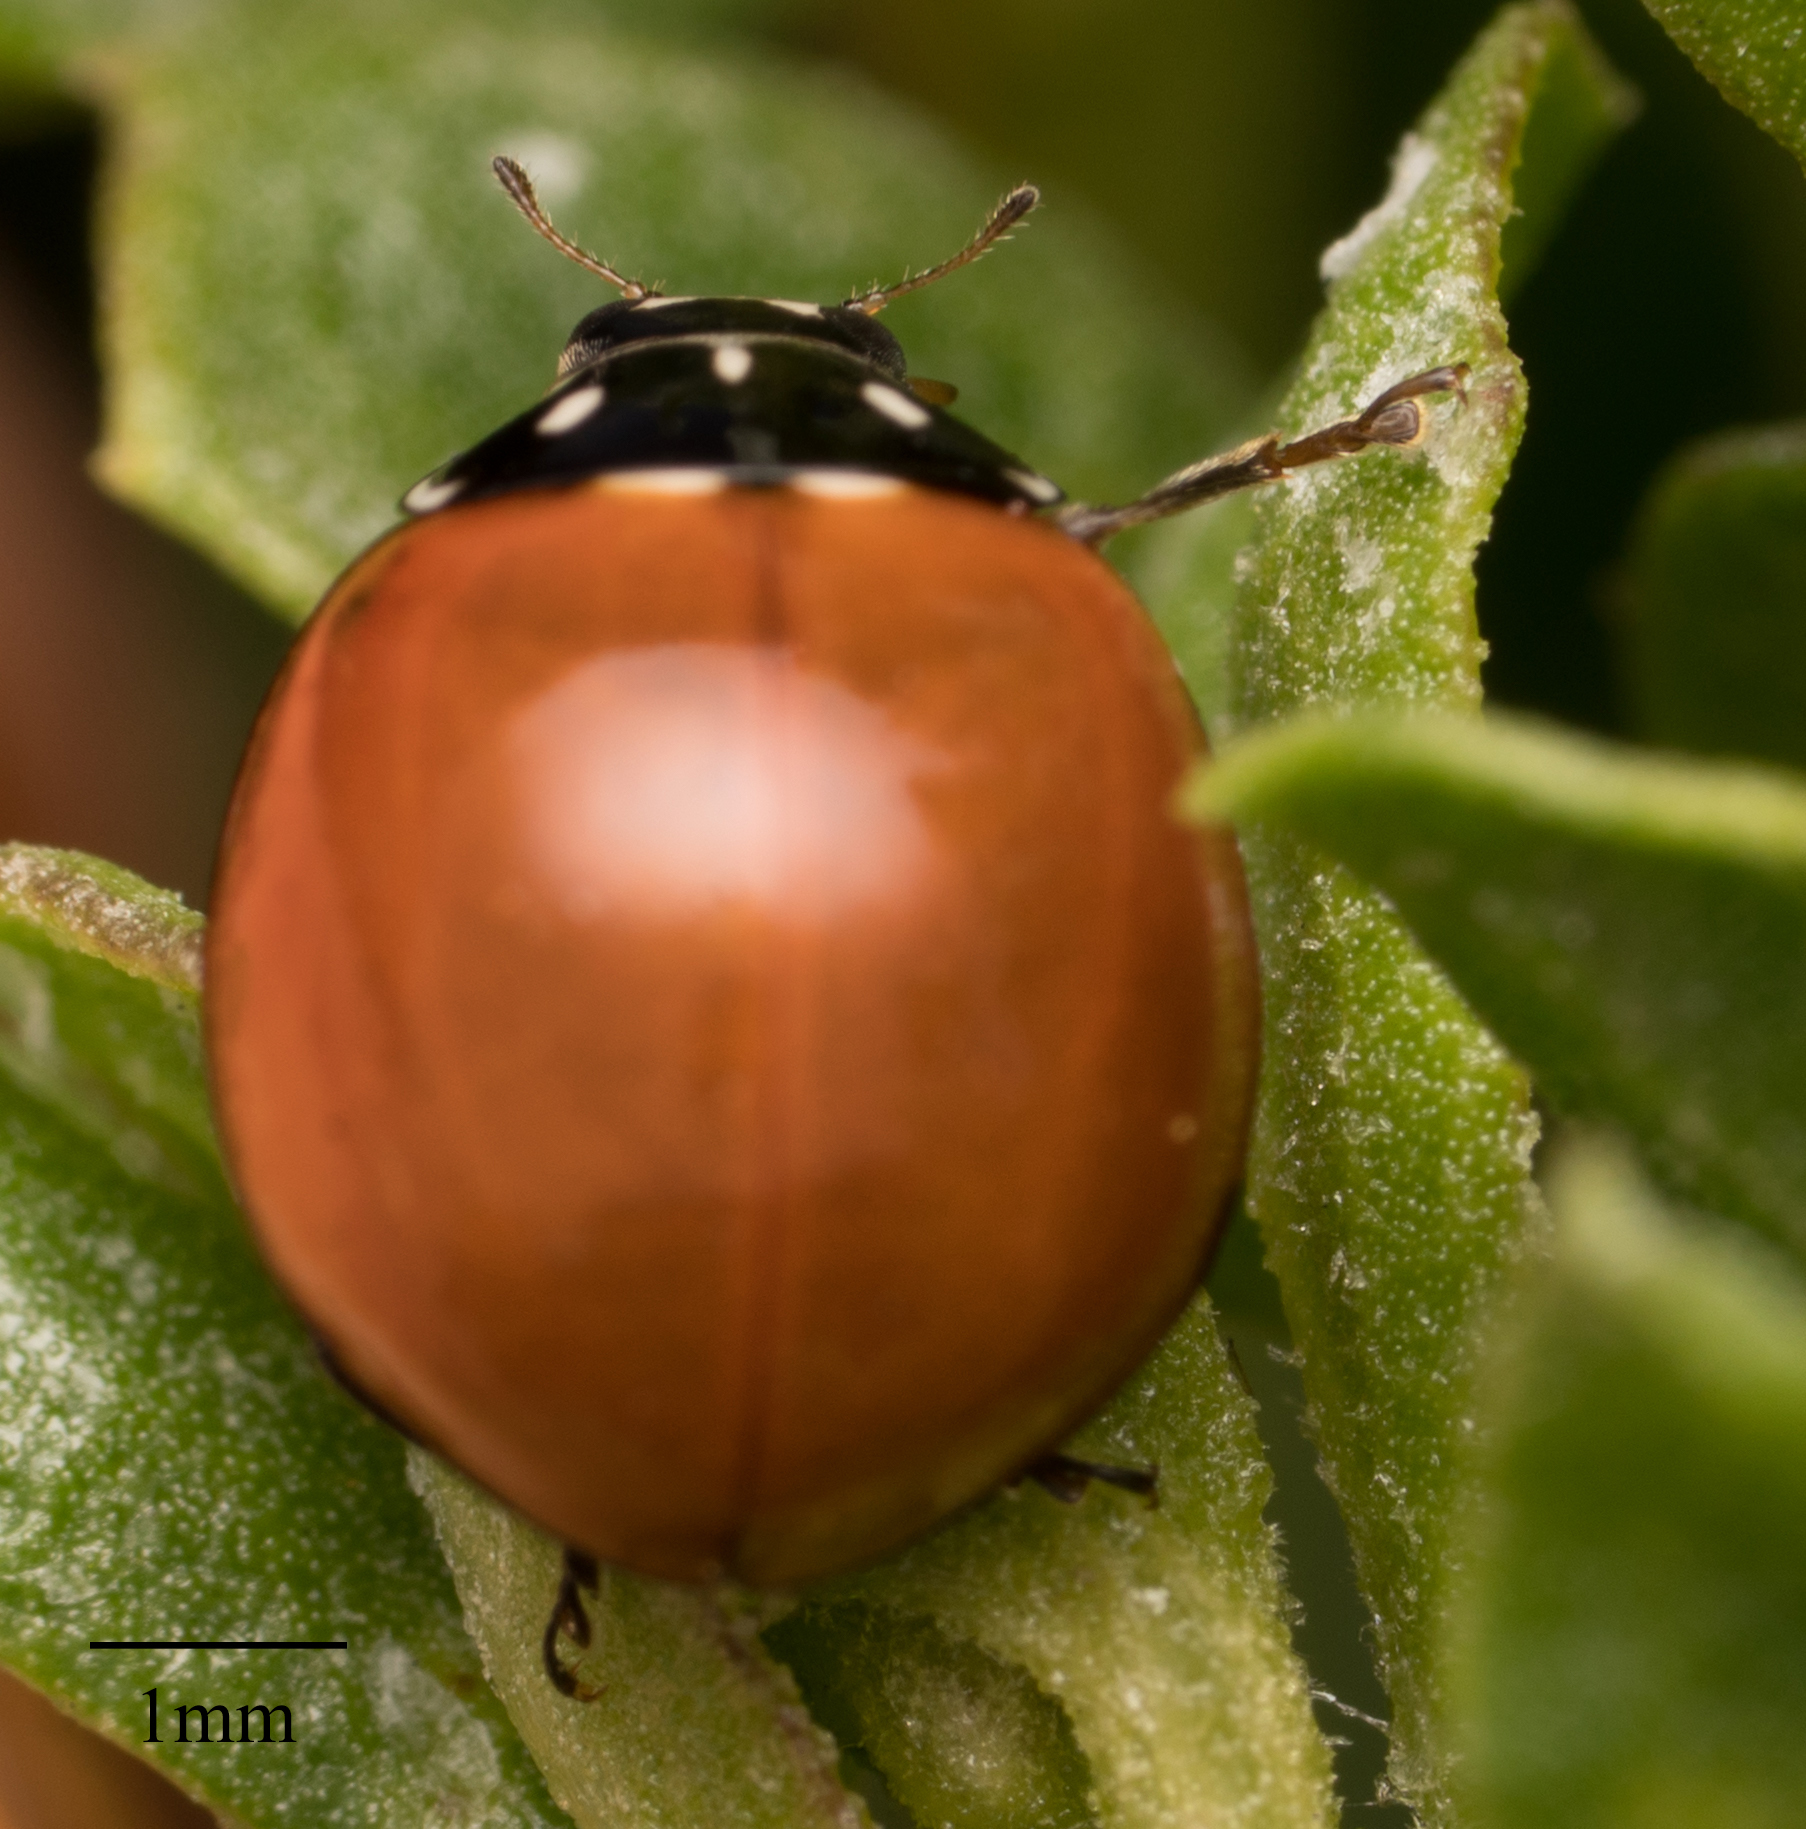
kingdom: Animalia
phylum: Arthropoda
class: Insecta
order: Coleoptera
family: Coccinellidae
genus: Cycloneda
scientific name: Cycloneda sanguinea
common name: Ladybird beetle
